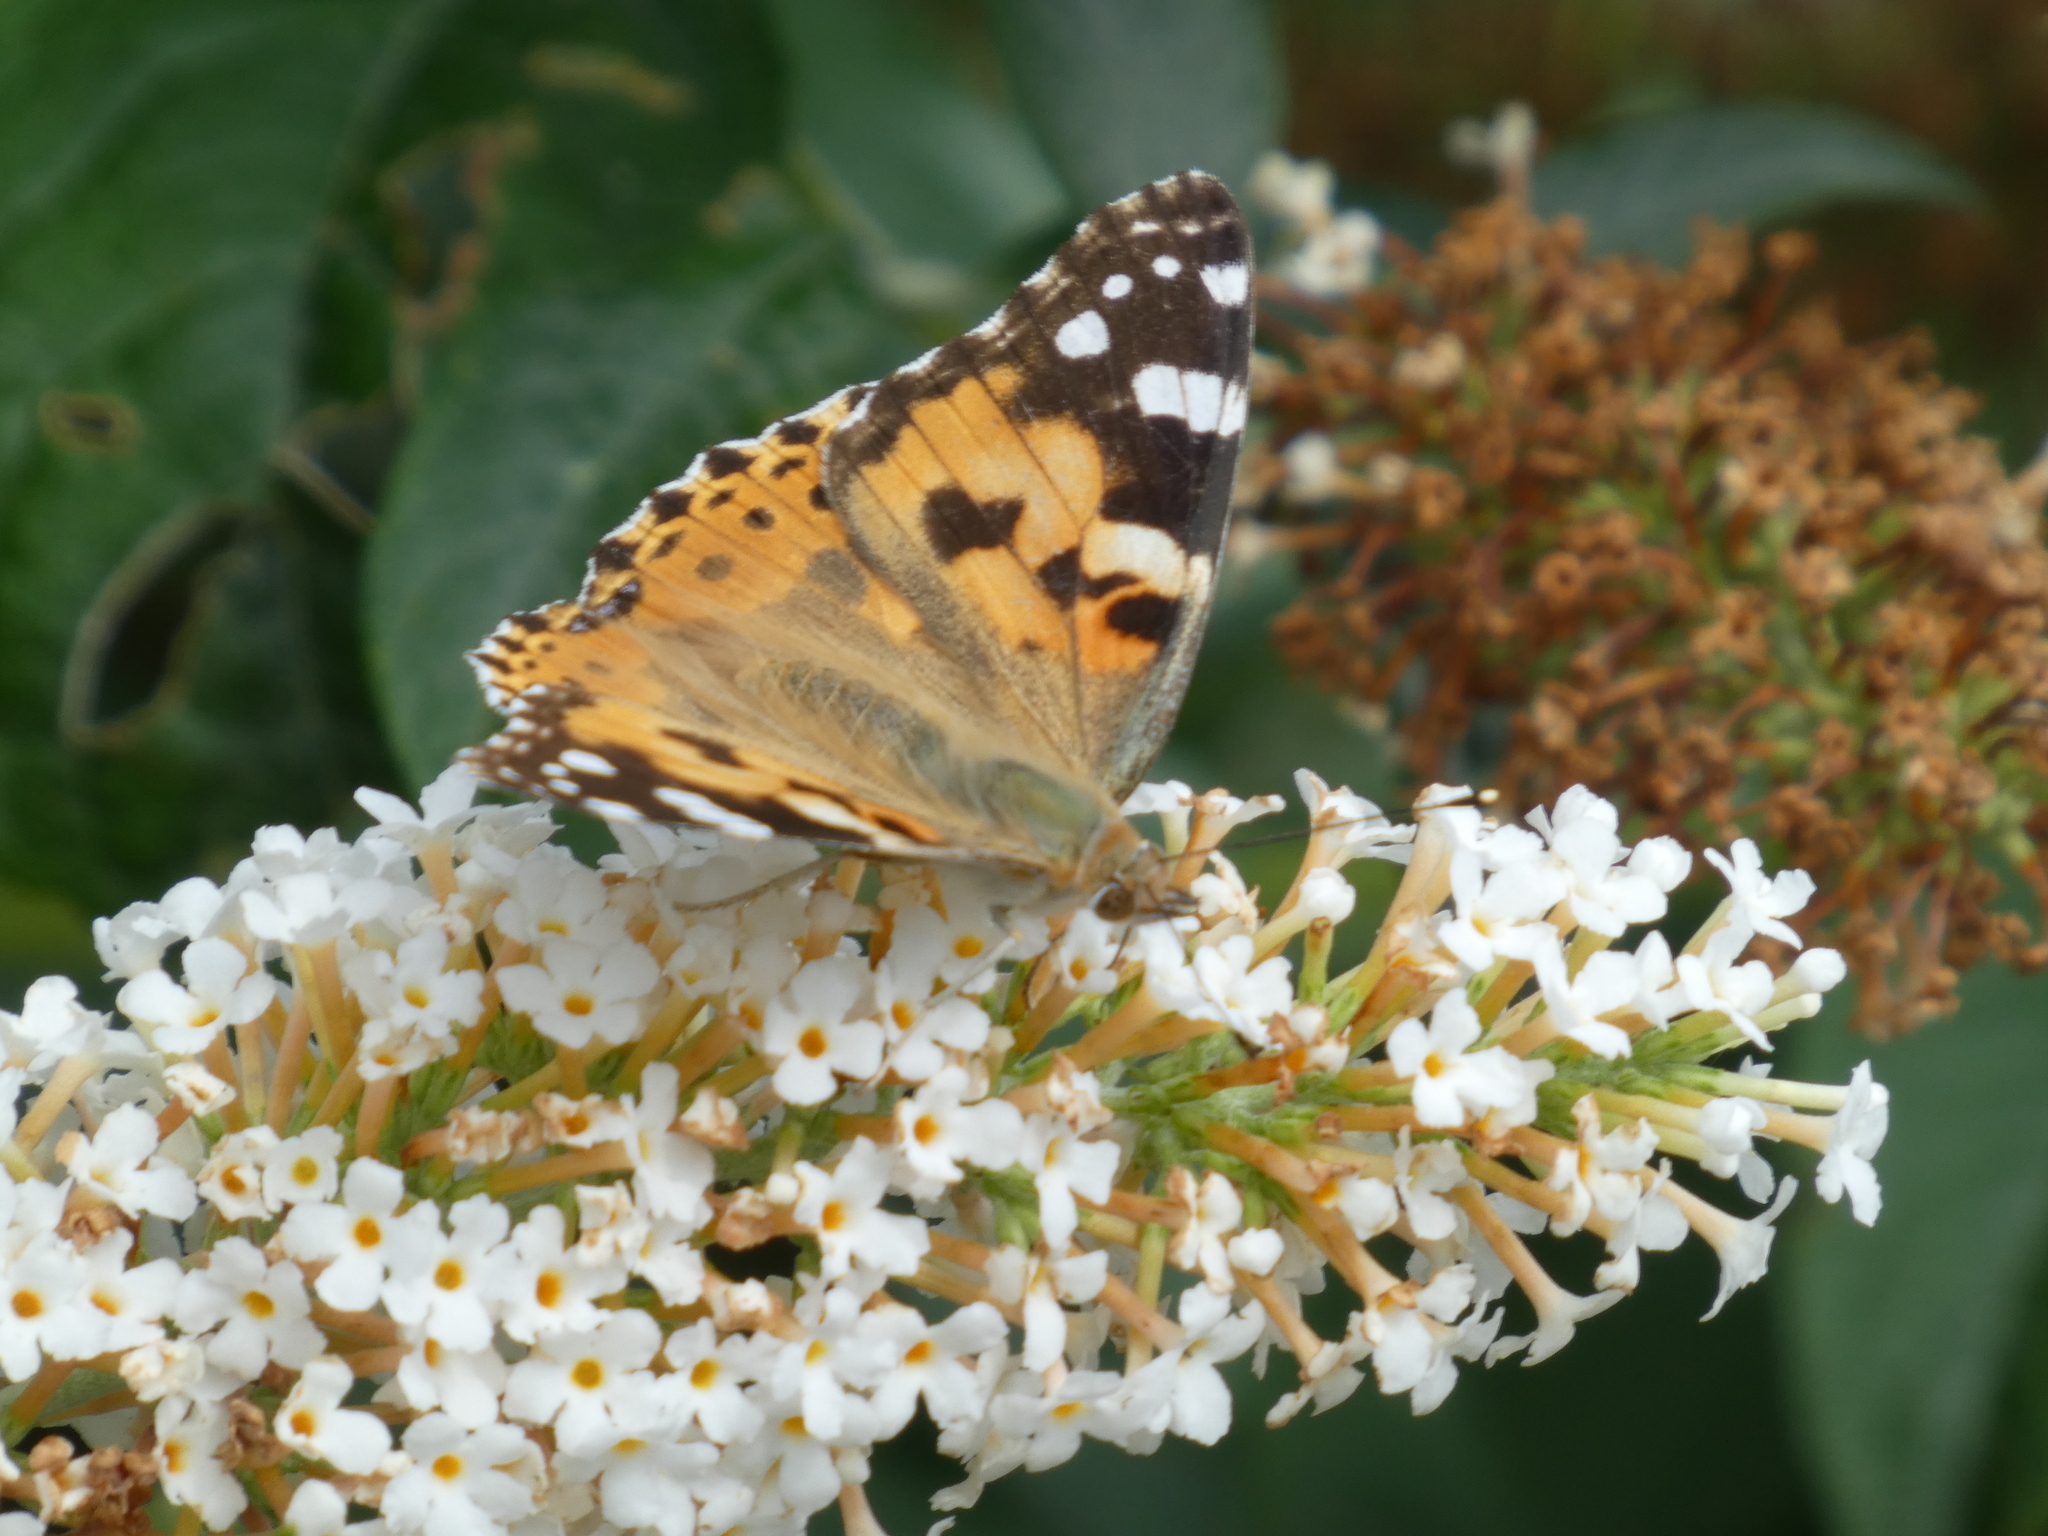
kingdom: Animalia
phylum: Arthropoda
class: Insecta
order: Lepidoptera
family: Nymphalidae
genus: Vanessa
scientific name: Vanessa cardui
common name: Painted lady
